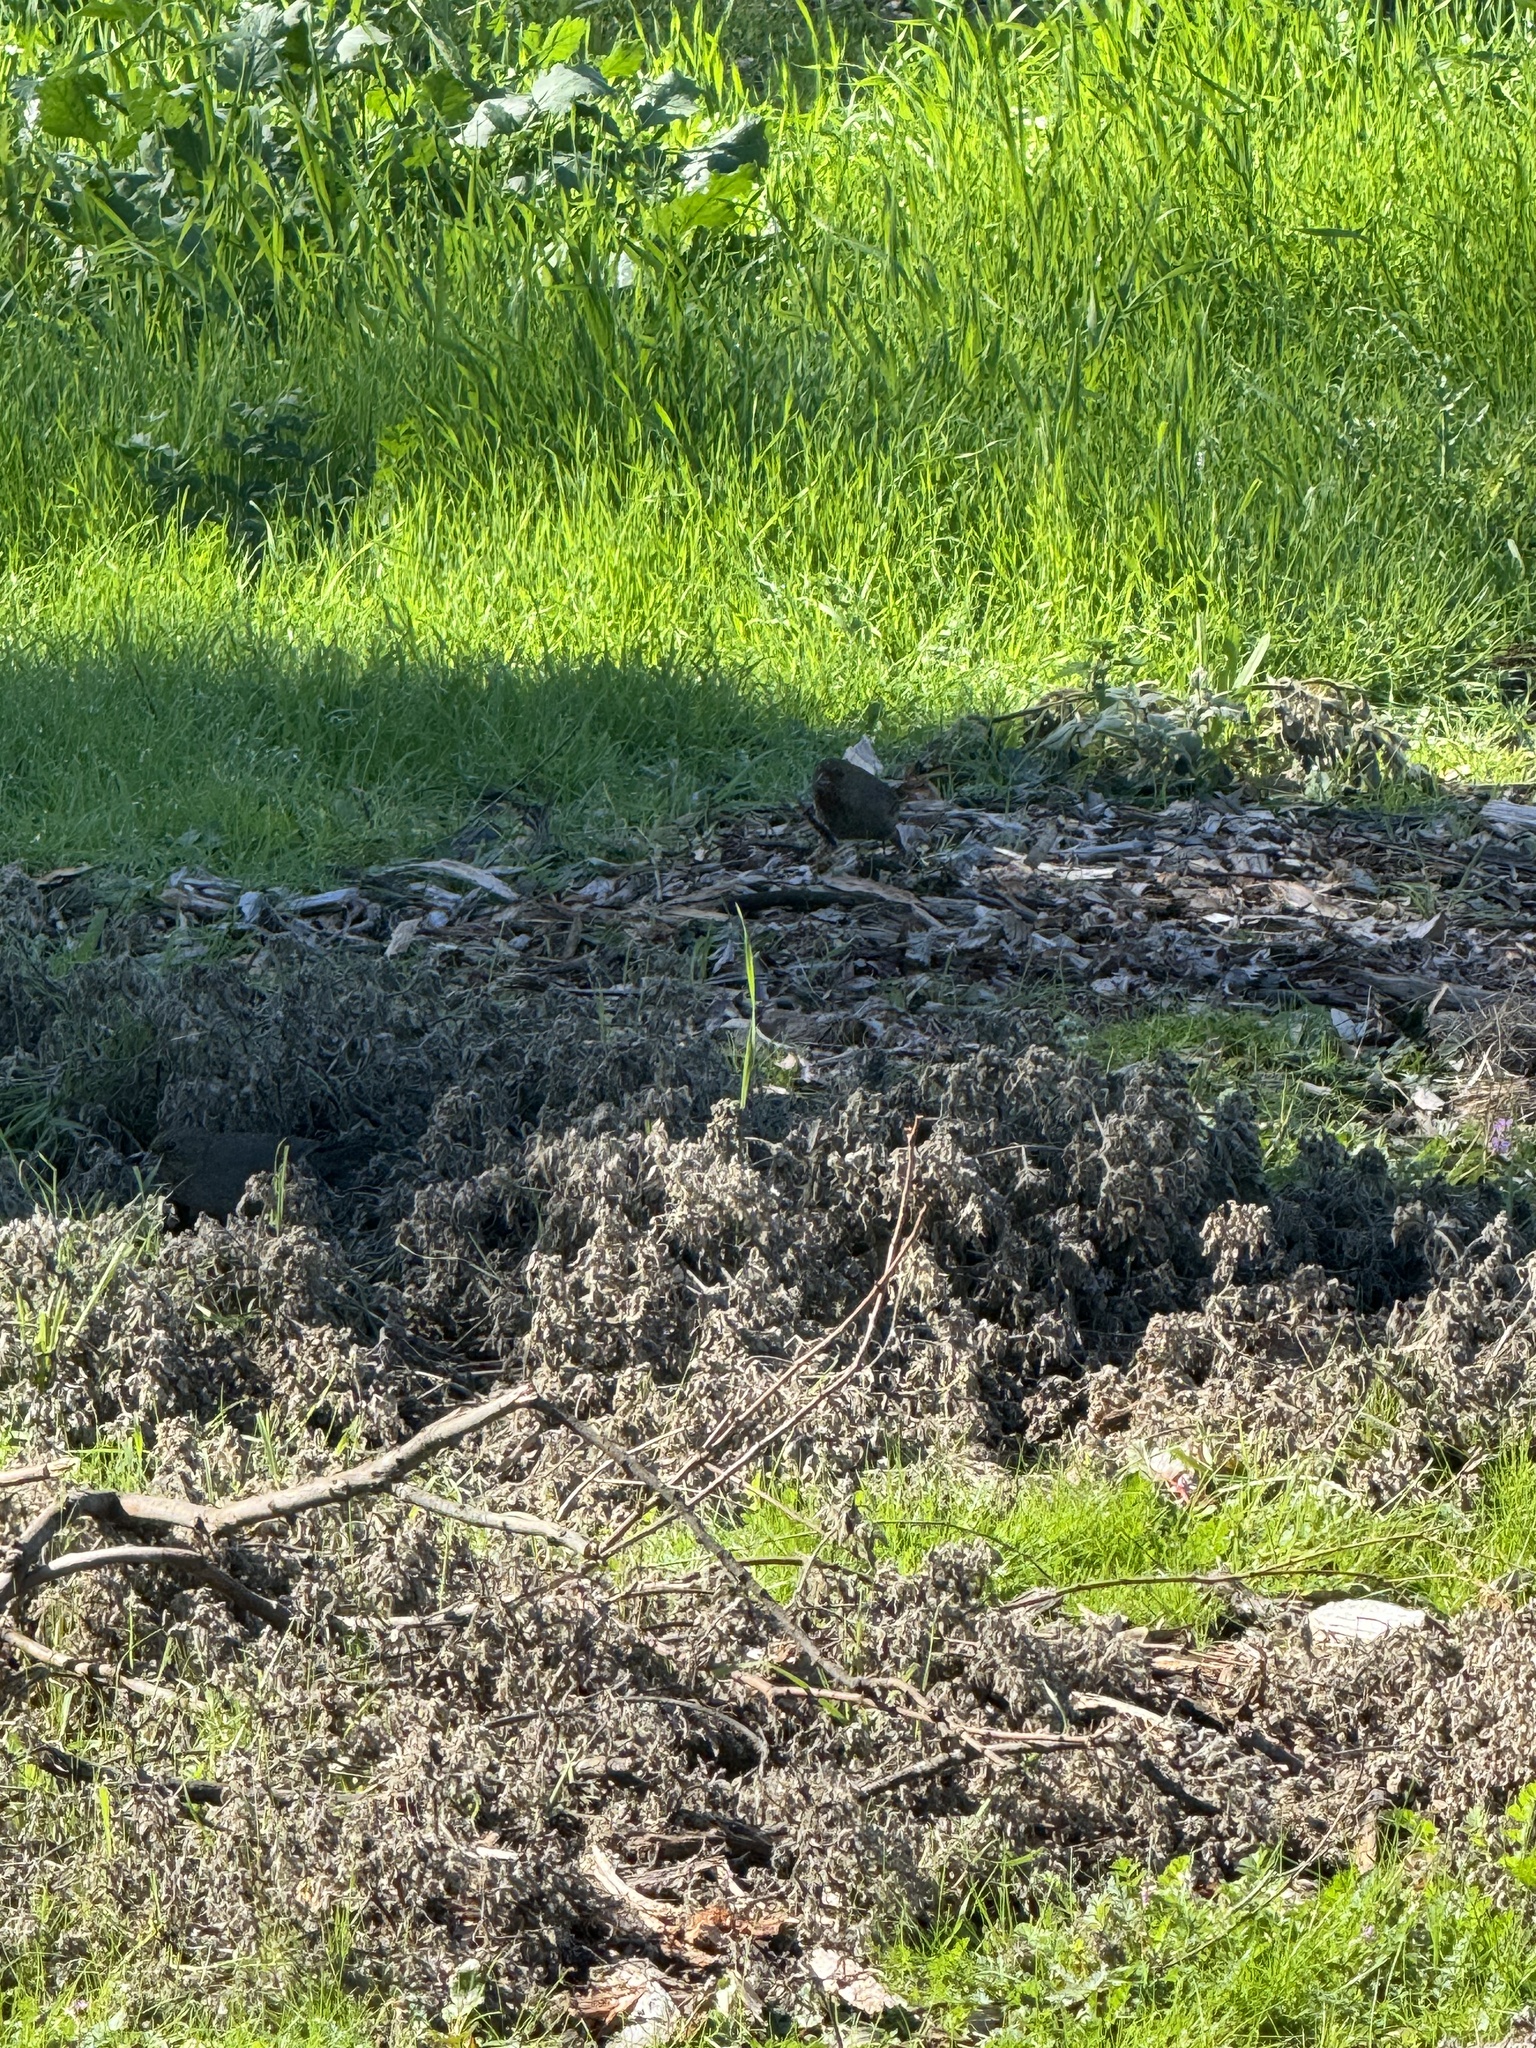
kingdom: Animalia
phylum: Chordata
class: Aves
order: Passeriformes
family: Passerellidae
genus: Melozone
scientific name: Melozone crissalis
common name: California towhee
